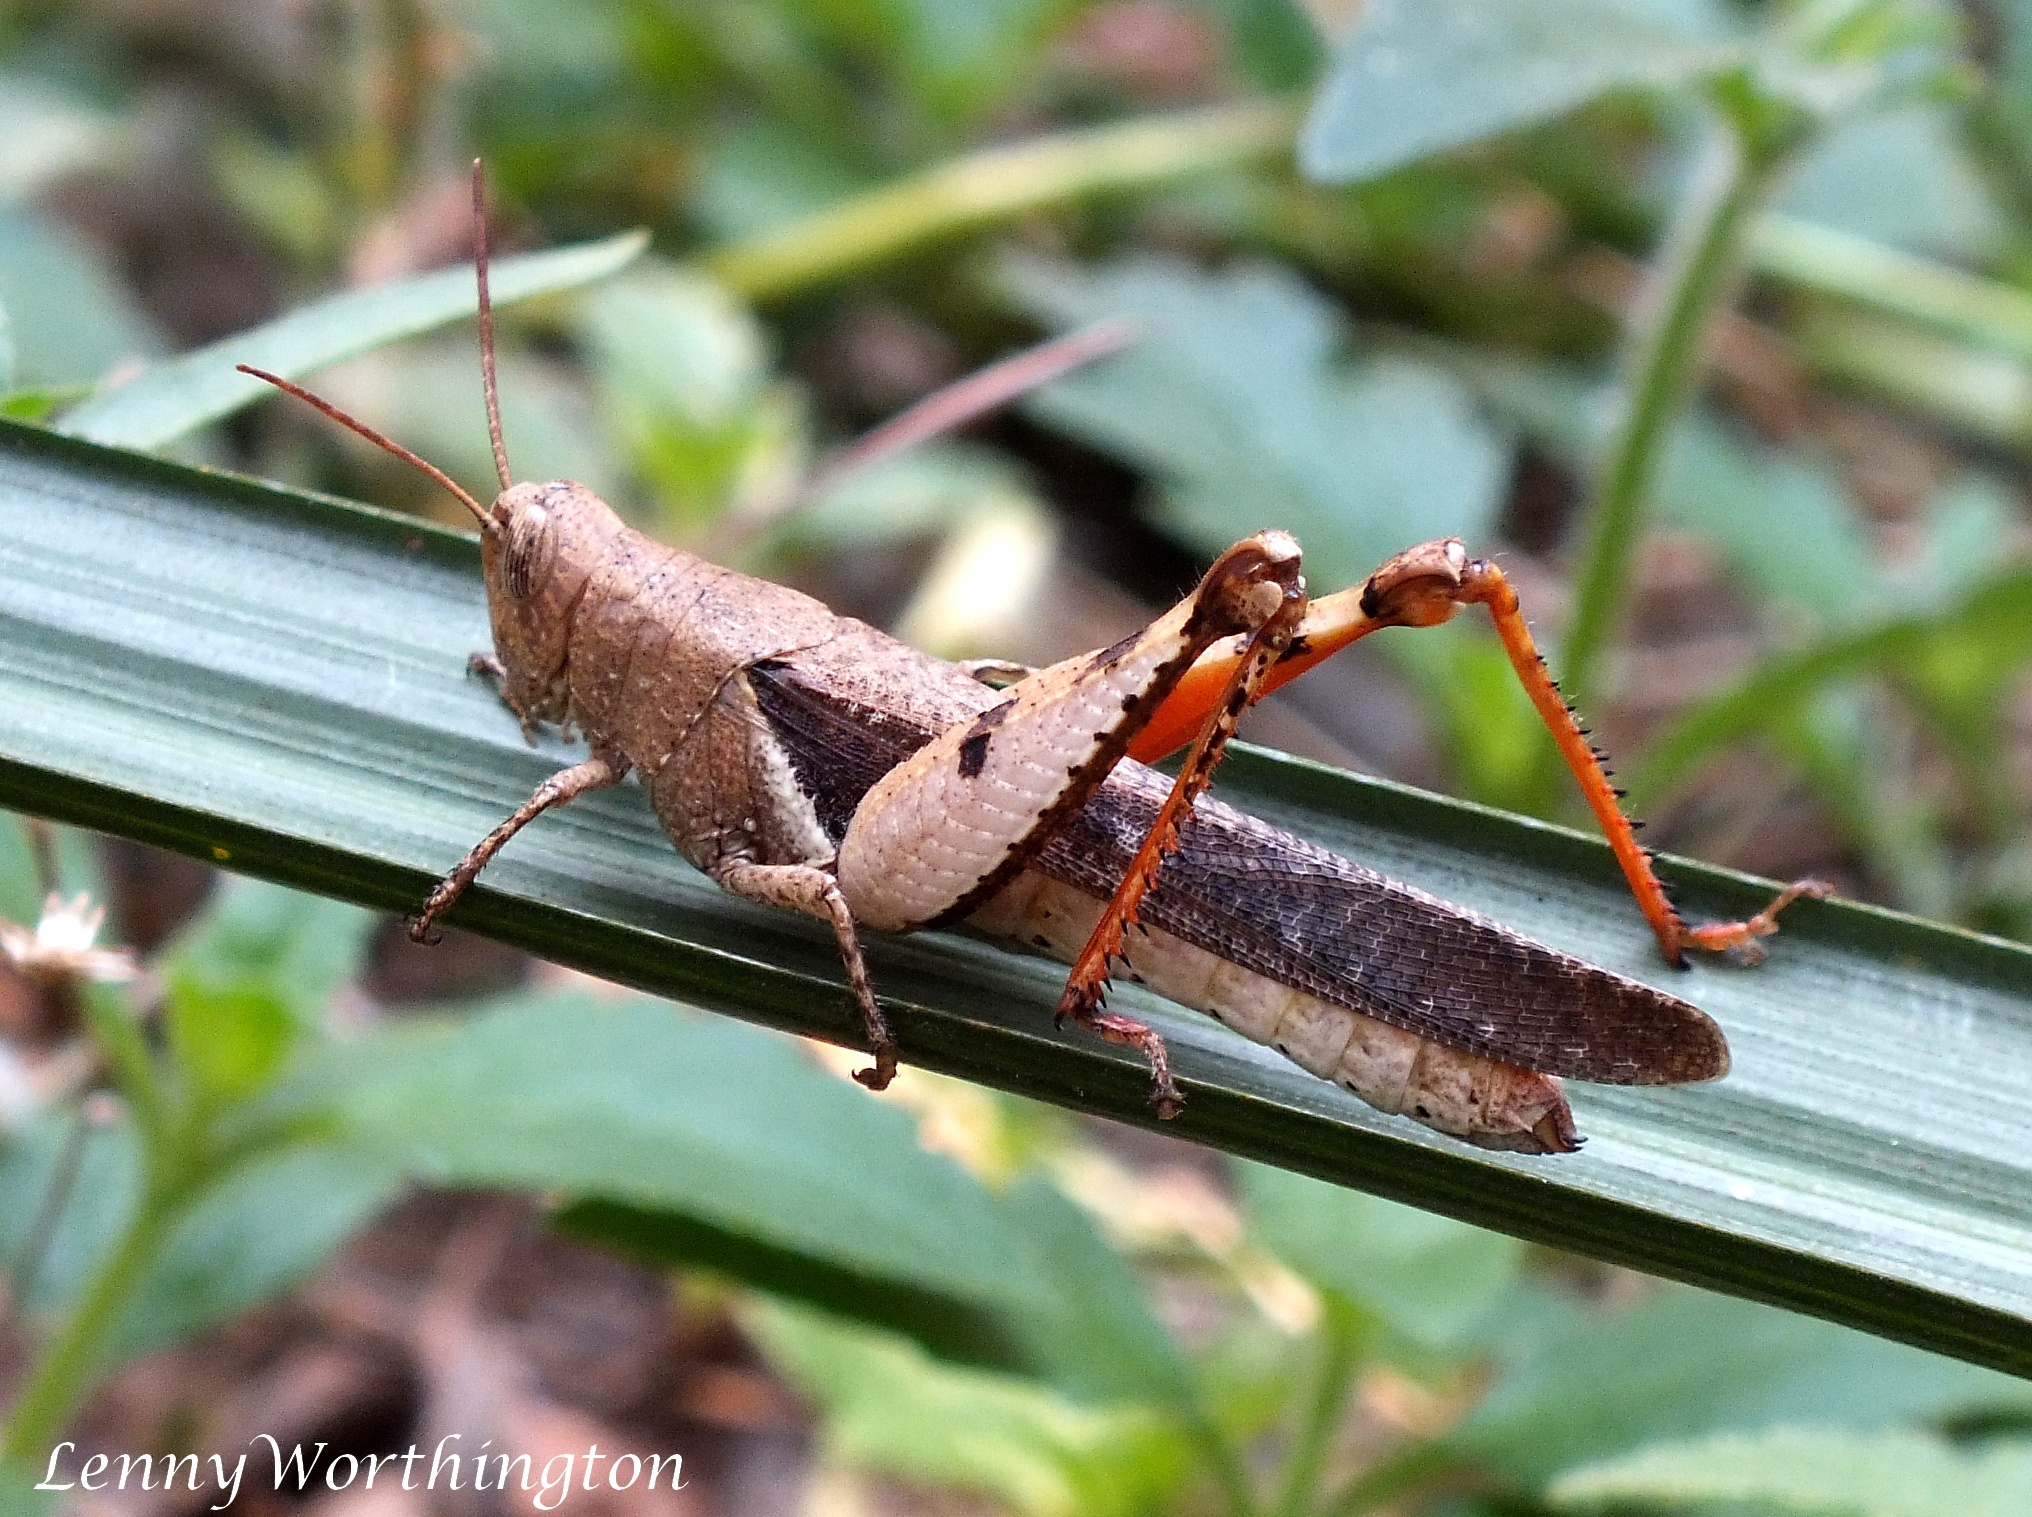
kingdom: Animalia
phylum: Arthropoda
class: Insecta
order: Orthoptera
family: Acrididae
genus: Diabolocatantops
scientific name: Diabolocatantops pinguis
